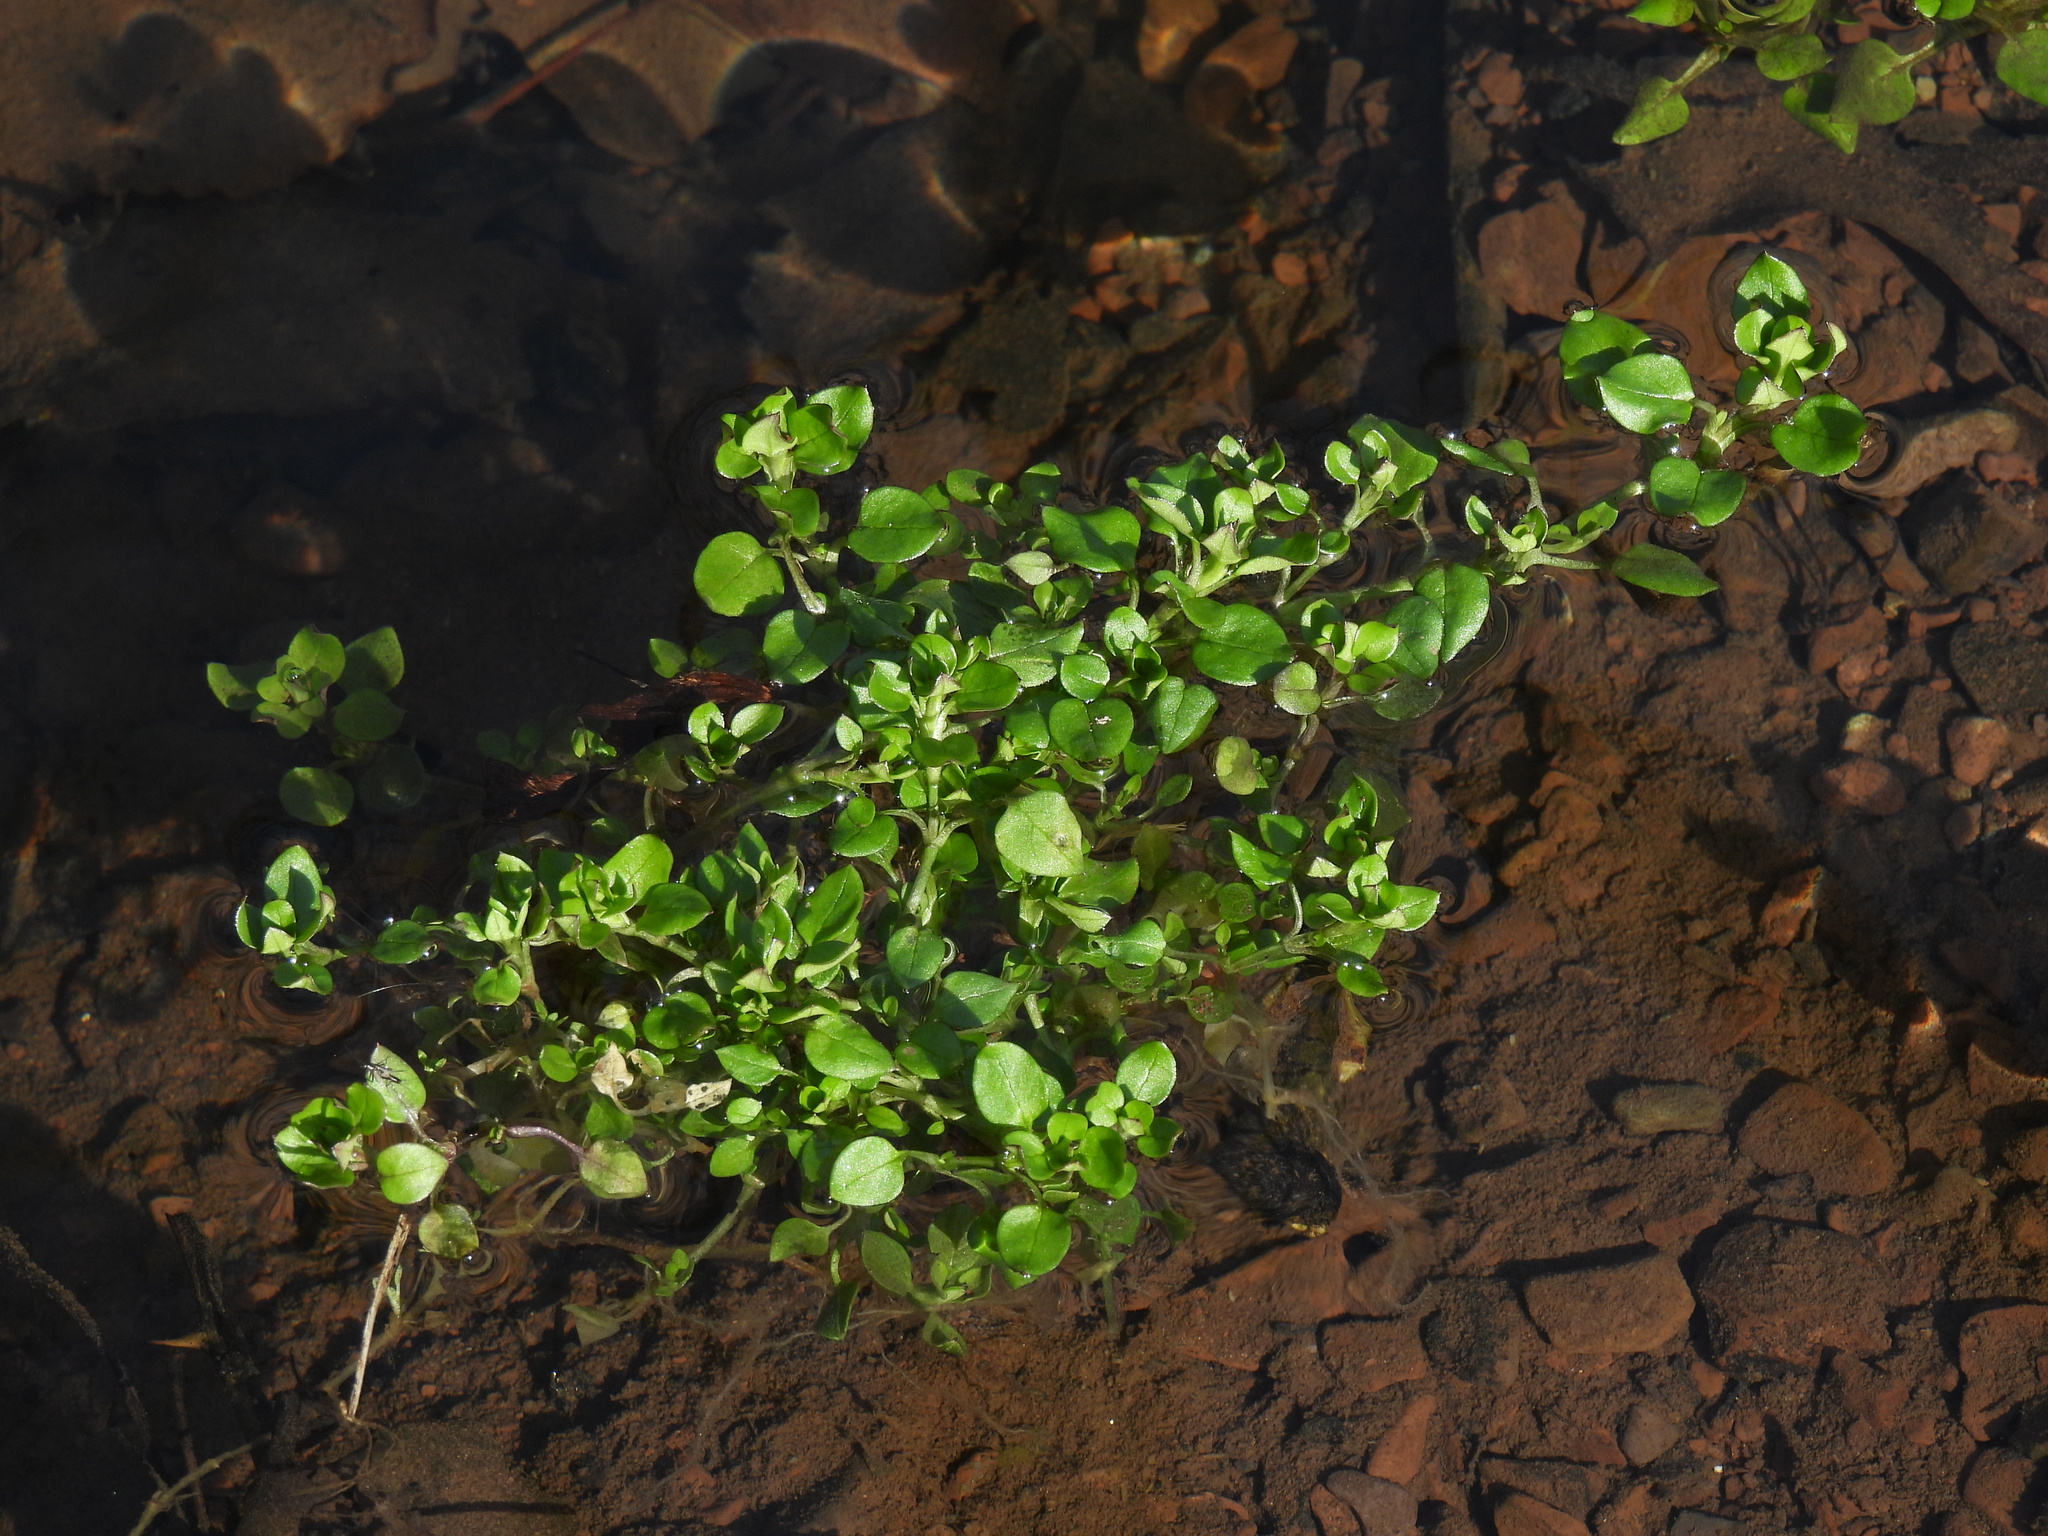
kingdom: Plantae
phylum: Tracheophyta
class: Magnoliopsida
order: Caryophyllales
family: Caryophyllaceae
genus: Stellaria
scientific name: Stellaria media
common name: Common chickweed
